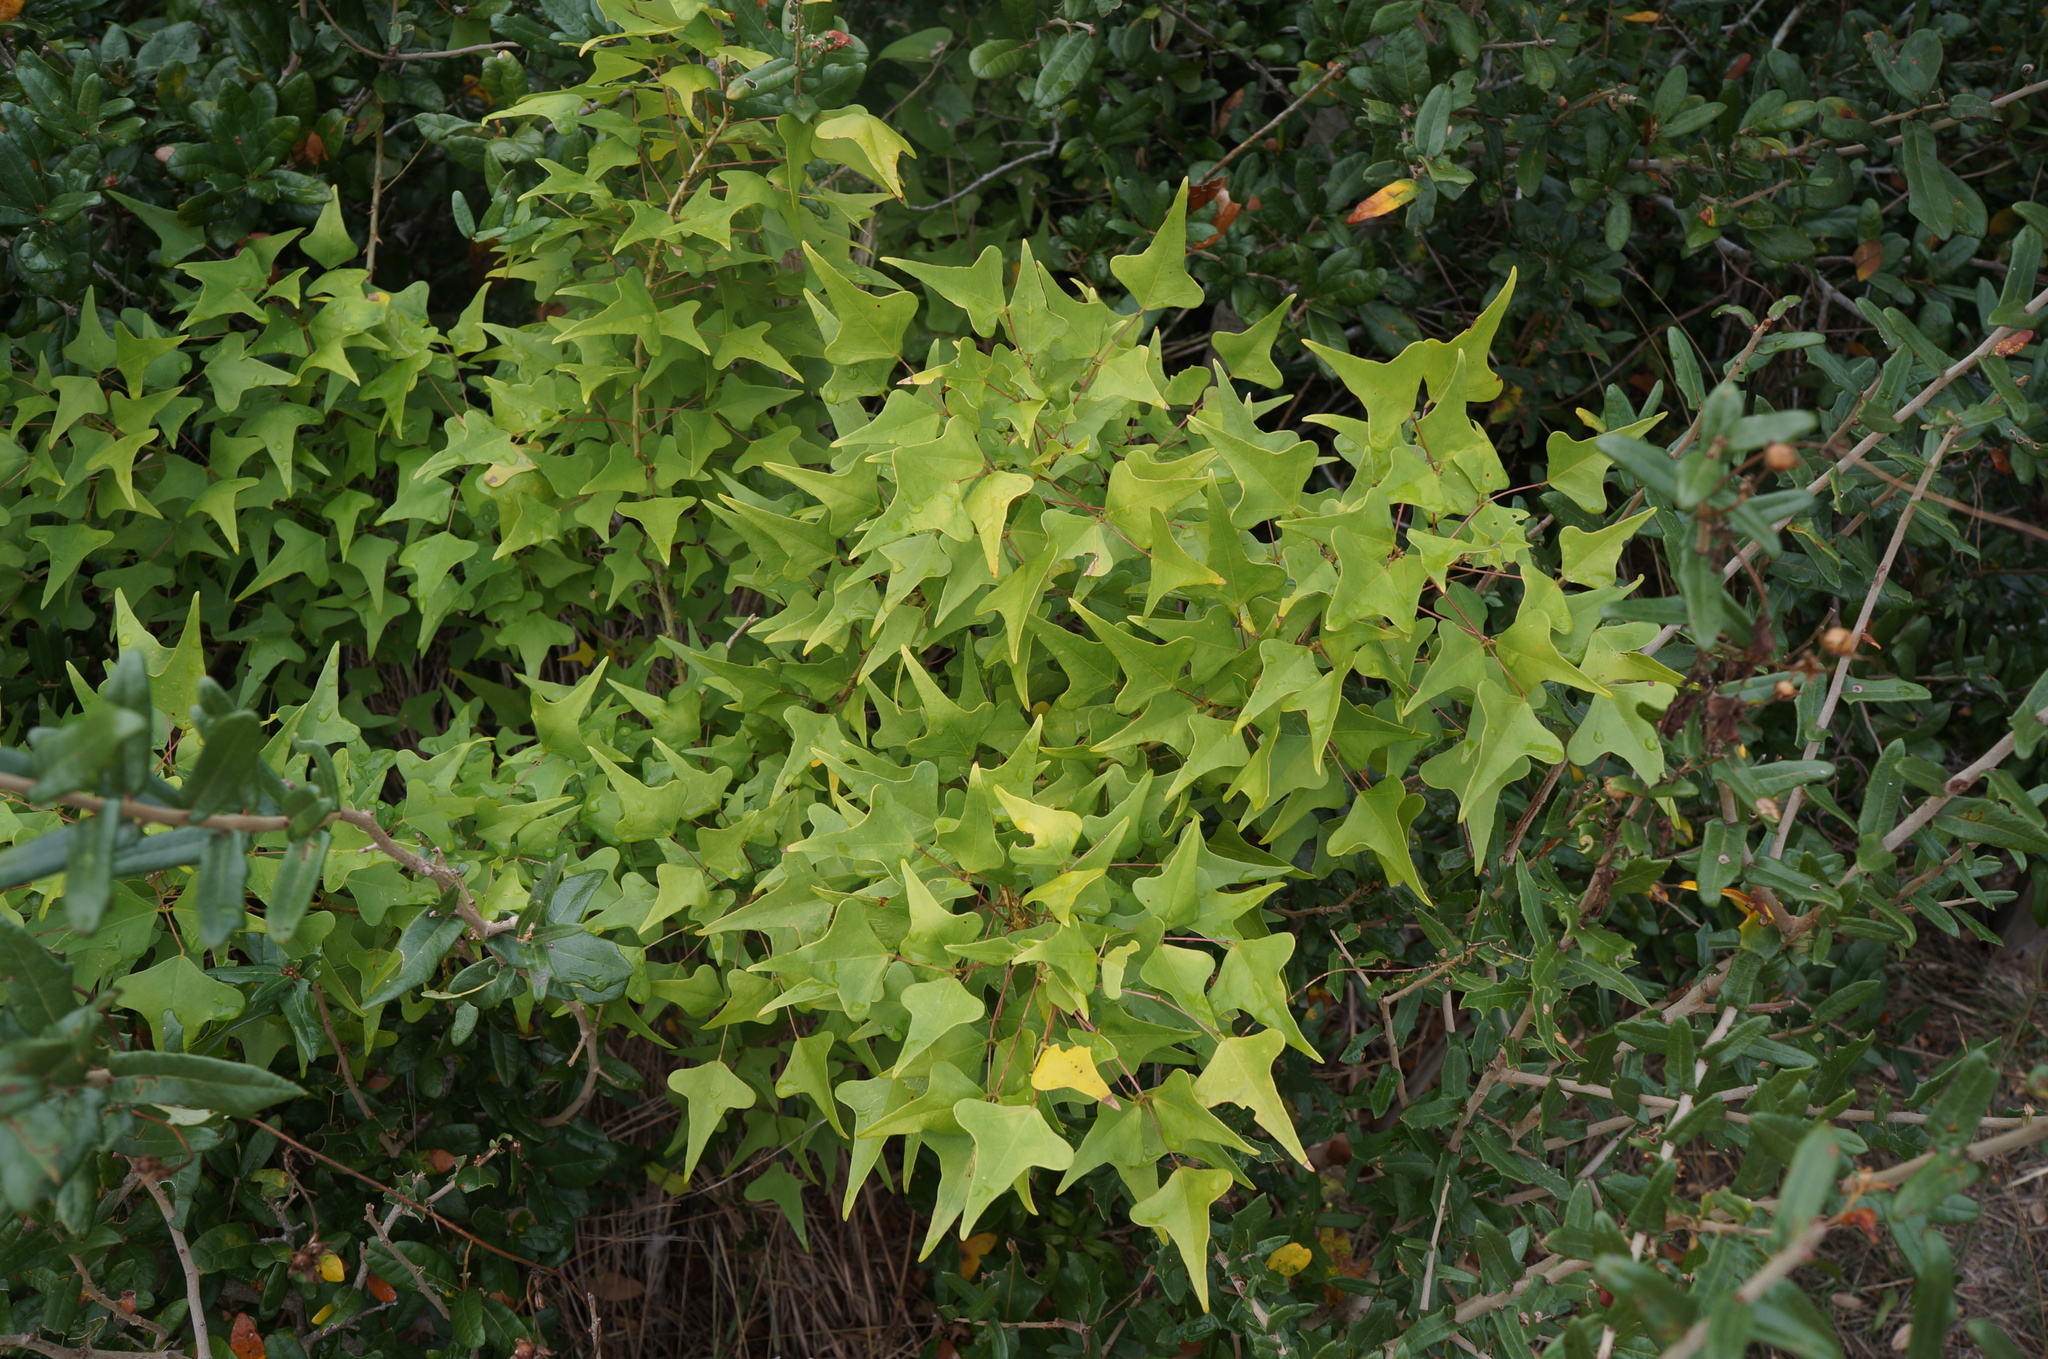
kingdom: Plantae
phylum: Tracheophyta
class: Magnoliopsida
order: Fabales
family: Fabaceae
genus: Erythrina
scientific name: Erythrina herbacea
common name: Coral-bean
